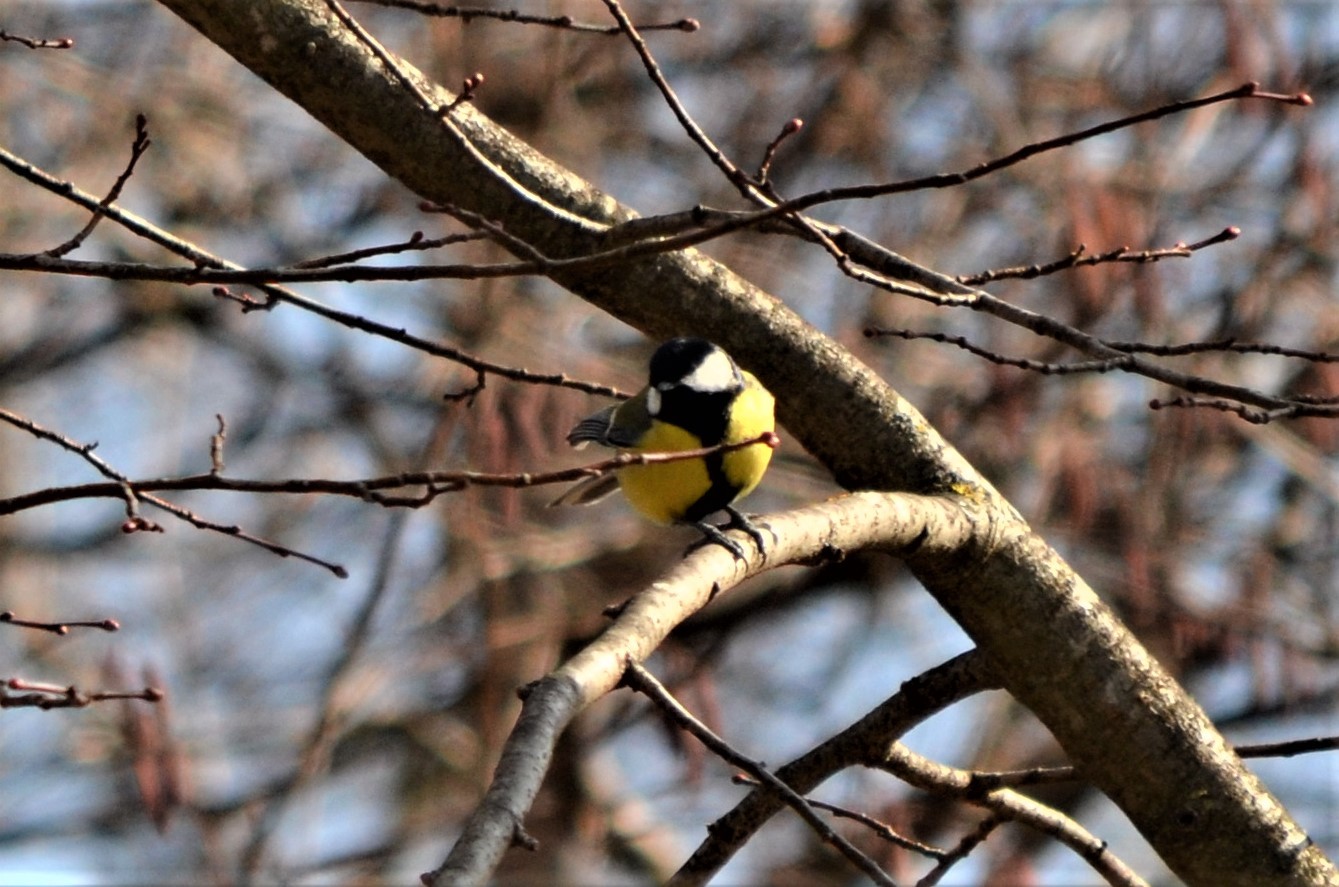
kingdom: Animalia
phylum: Chordata
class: Aves
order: Passeriformes
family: Paridae
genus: Parus
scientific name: Parus major
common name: Great tit
